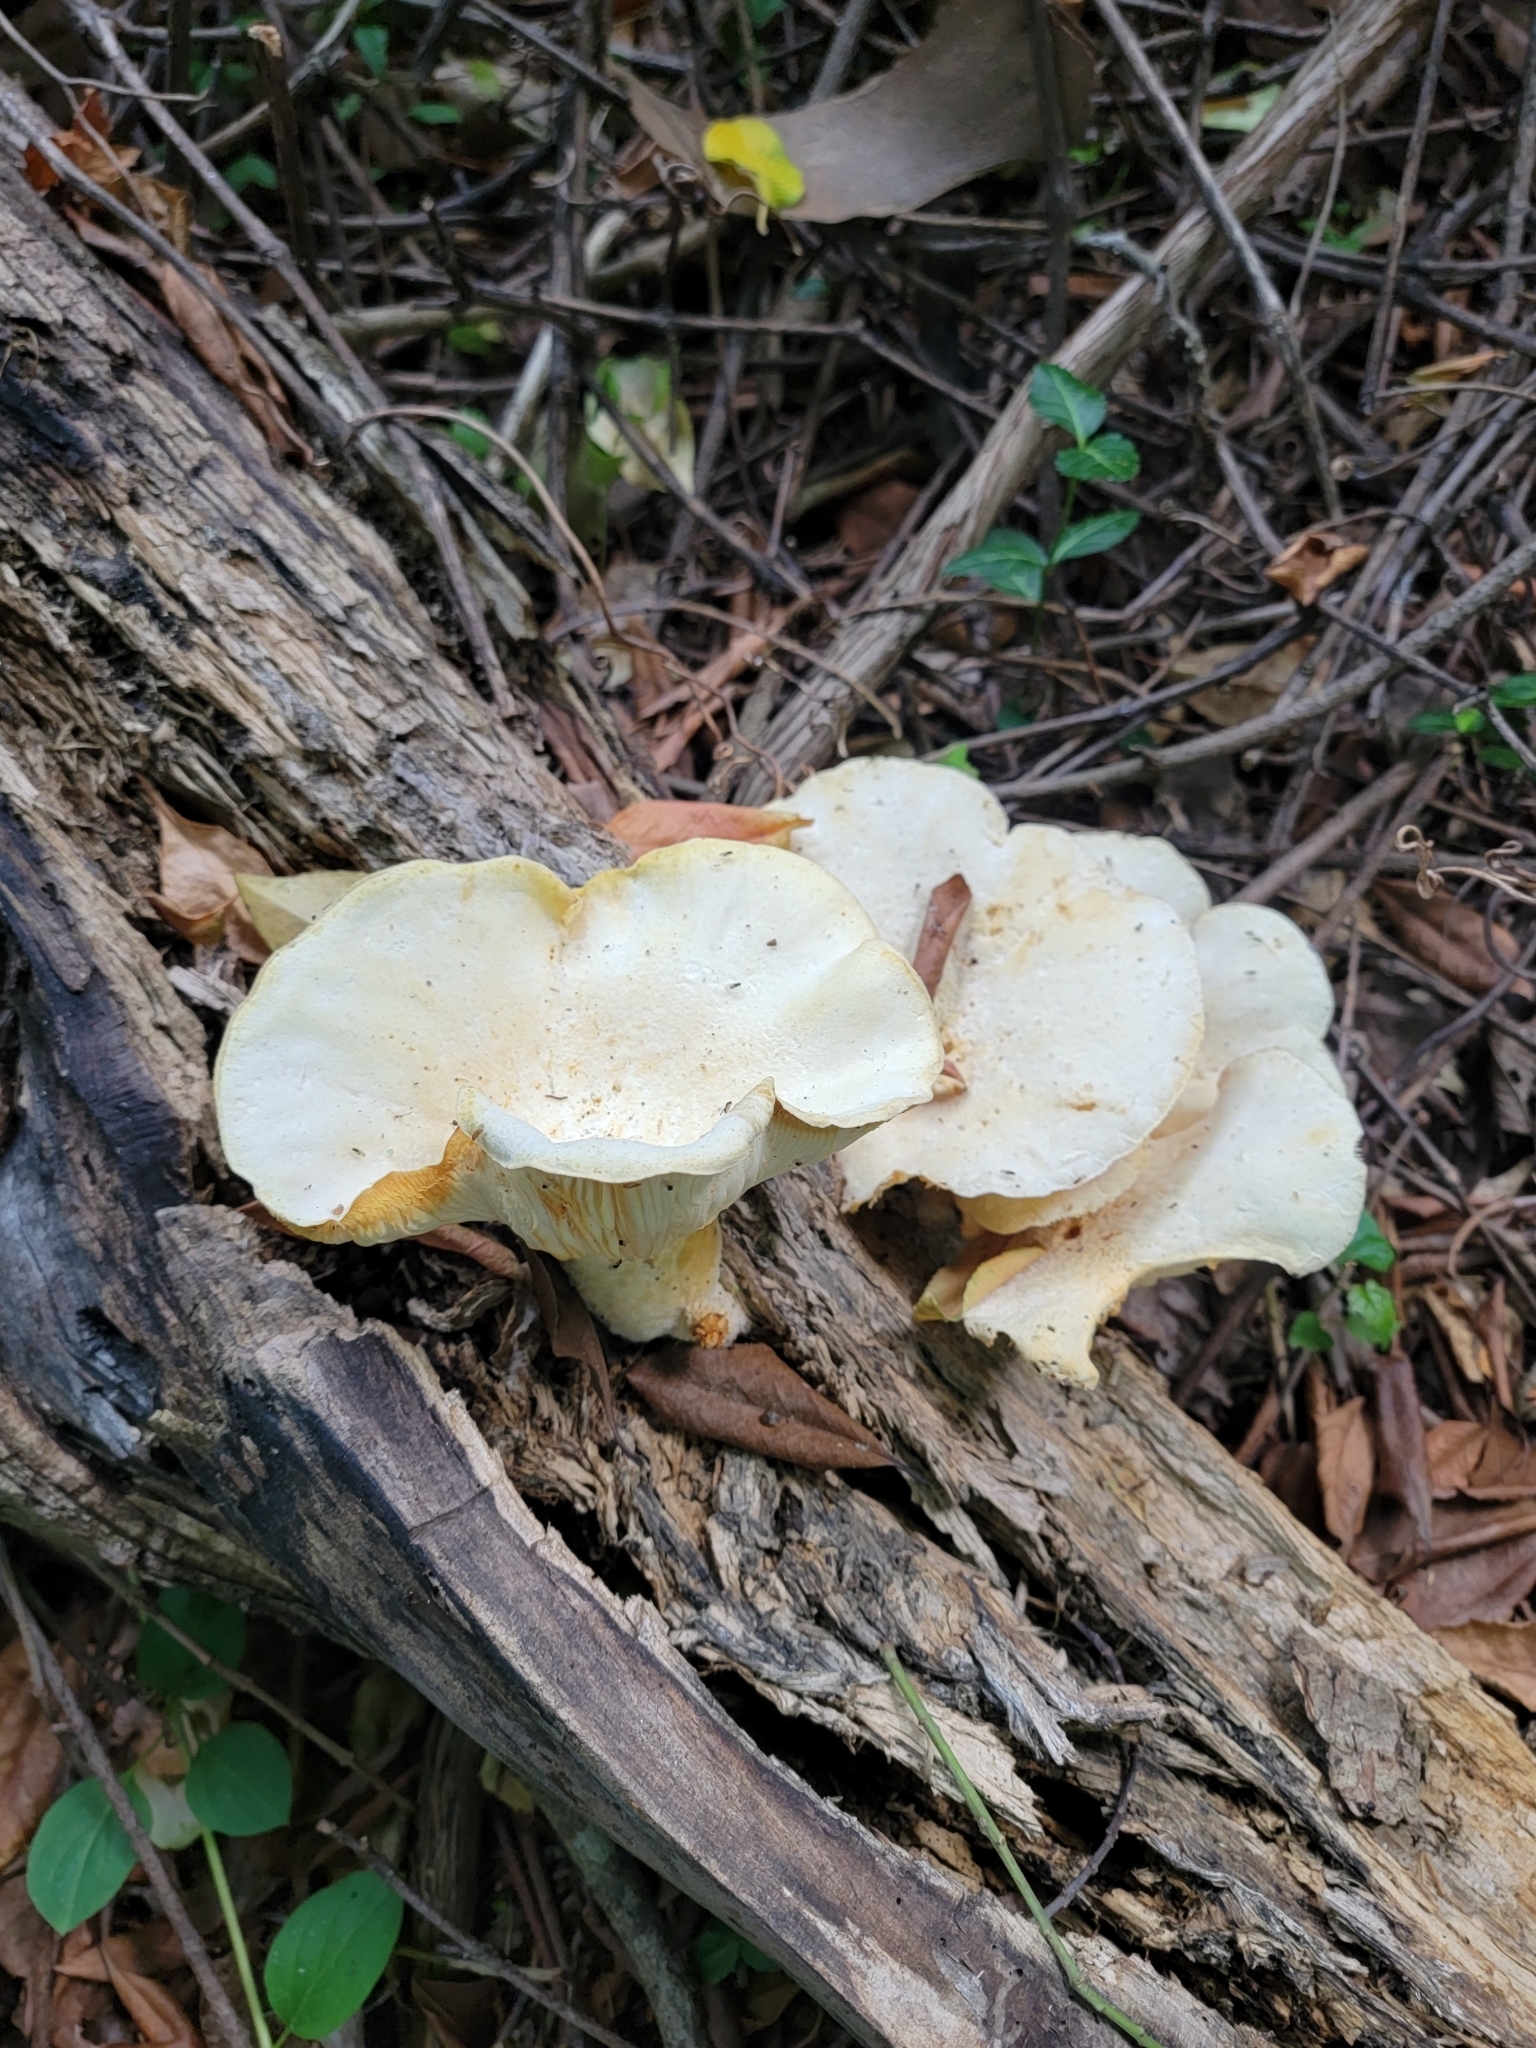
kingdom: Fungi
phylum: Basidiomycota
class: Agaricomycetes
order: Polyporales
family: Polyporaceae
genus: Lentinus
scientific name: Lentinus levis
